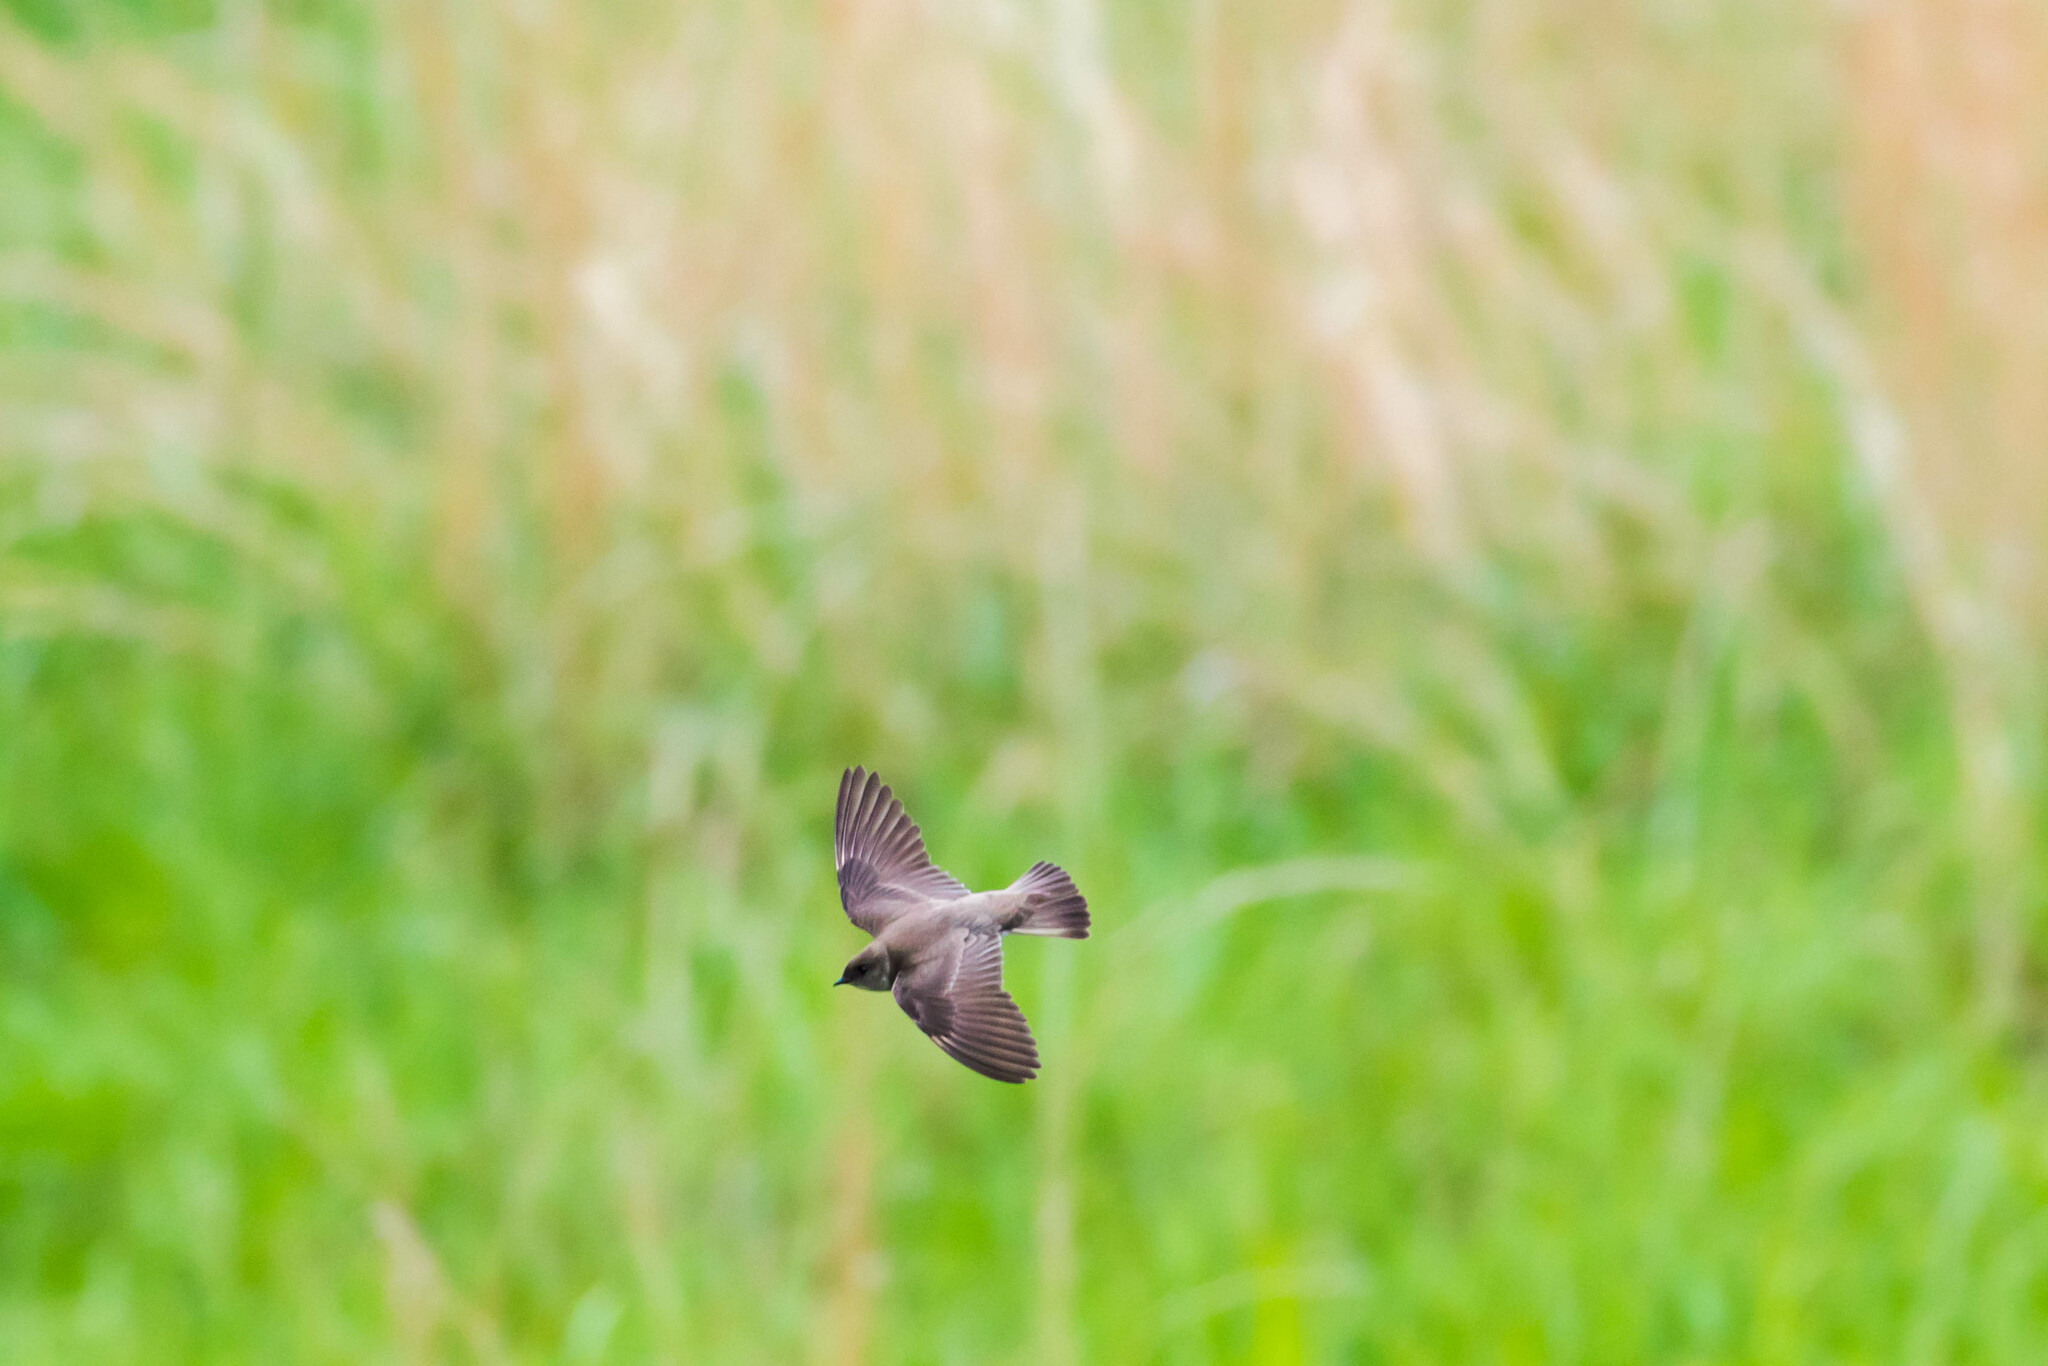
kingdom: Animalia
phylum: Chordata
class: Aves
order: Passeriformes
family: Hirundinidae
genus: Stelgidopteryx
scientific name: Stelgidopteryx serripennis
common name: Northern rough-winged swallow
